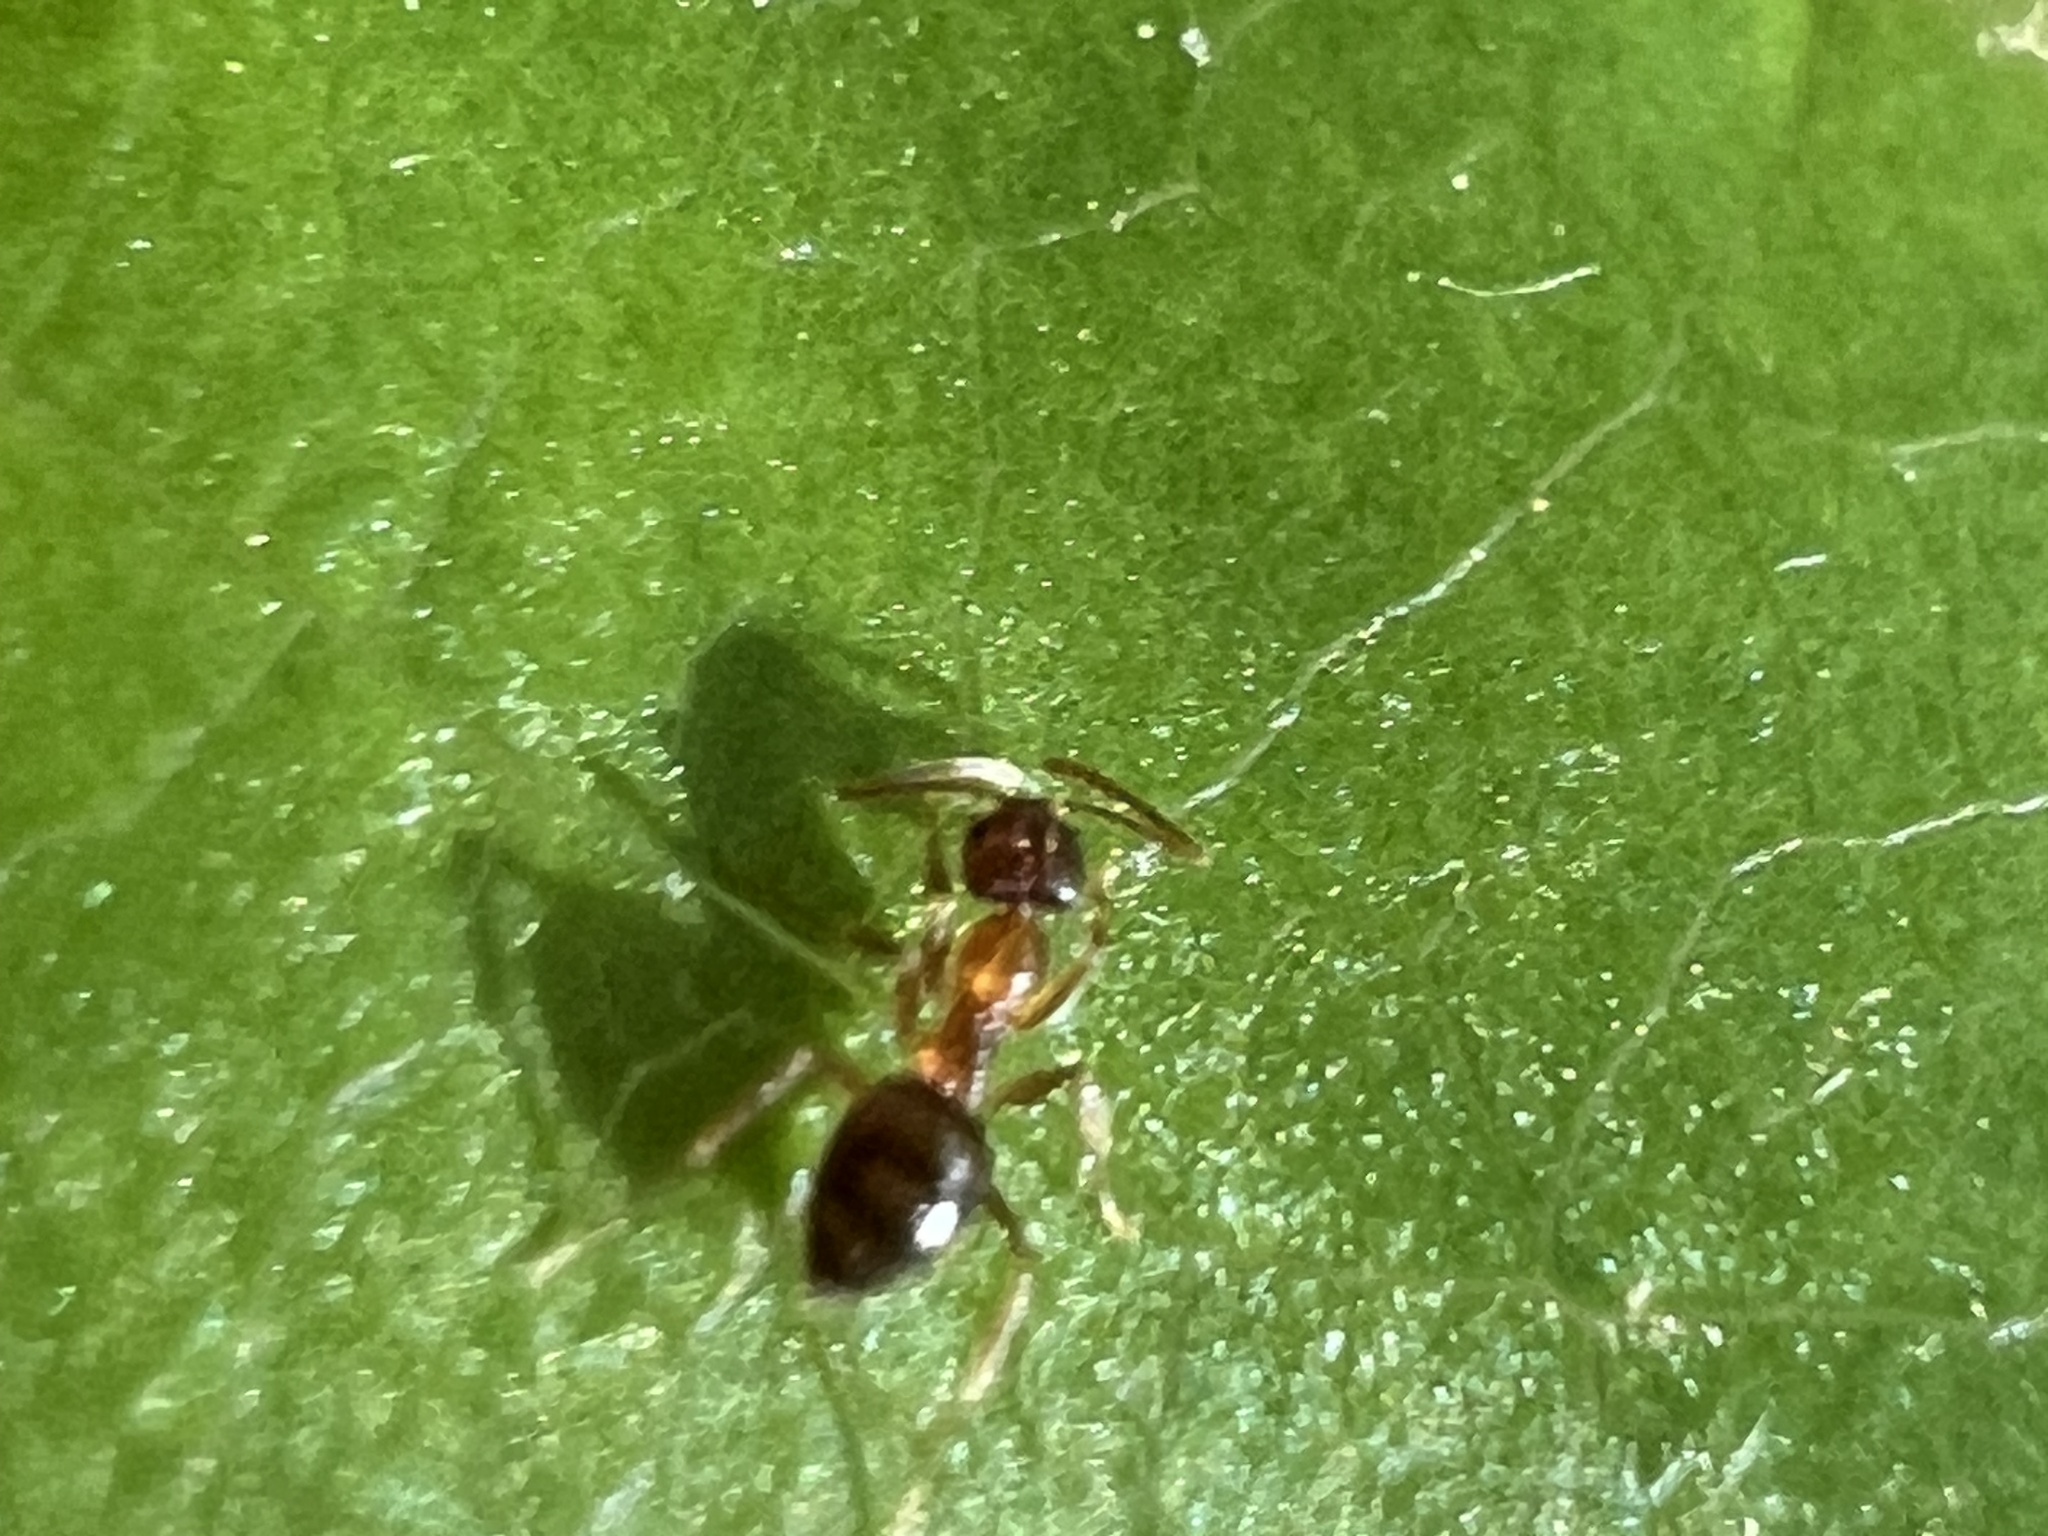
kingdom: Animalia
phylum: Arthropoda
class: Insecta
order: Hymenoptera
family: Formicidae
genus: Paratrechina
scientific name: Paratrechina flavipes
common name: Eastern asian formicine ant
